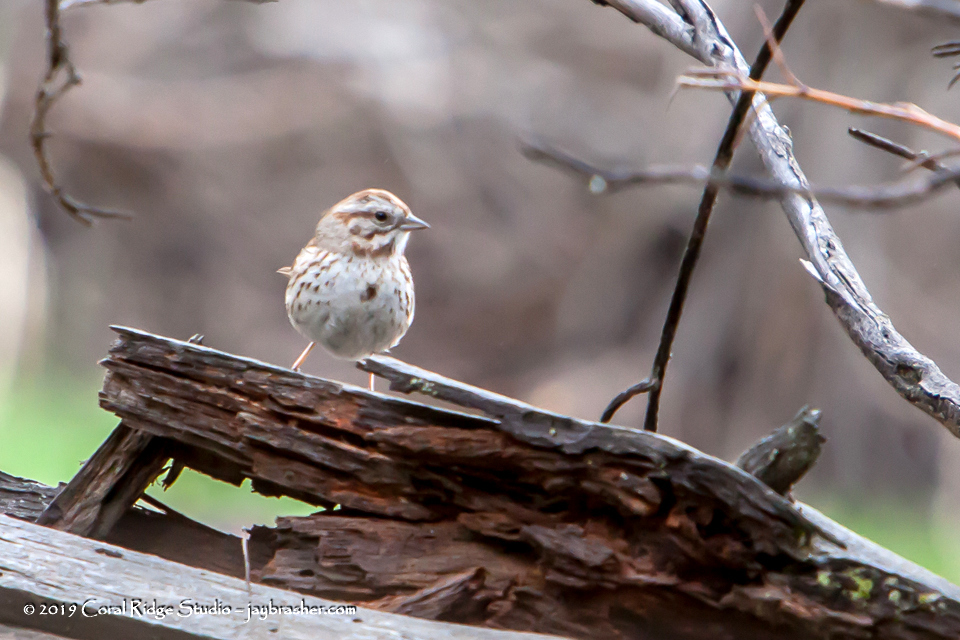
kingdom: Animalia
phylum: Chordata
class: Aves
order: Passeriformes
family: Passerellidae
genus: Melospiza
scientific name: Melospiza melodia
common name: Song sparrow
